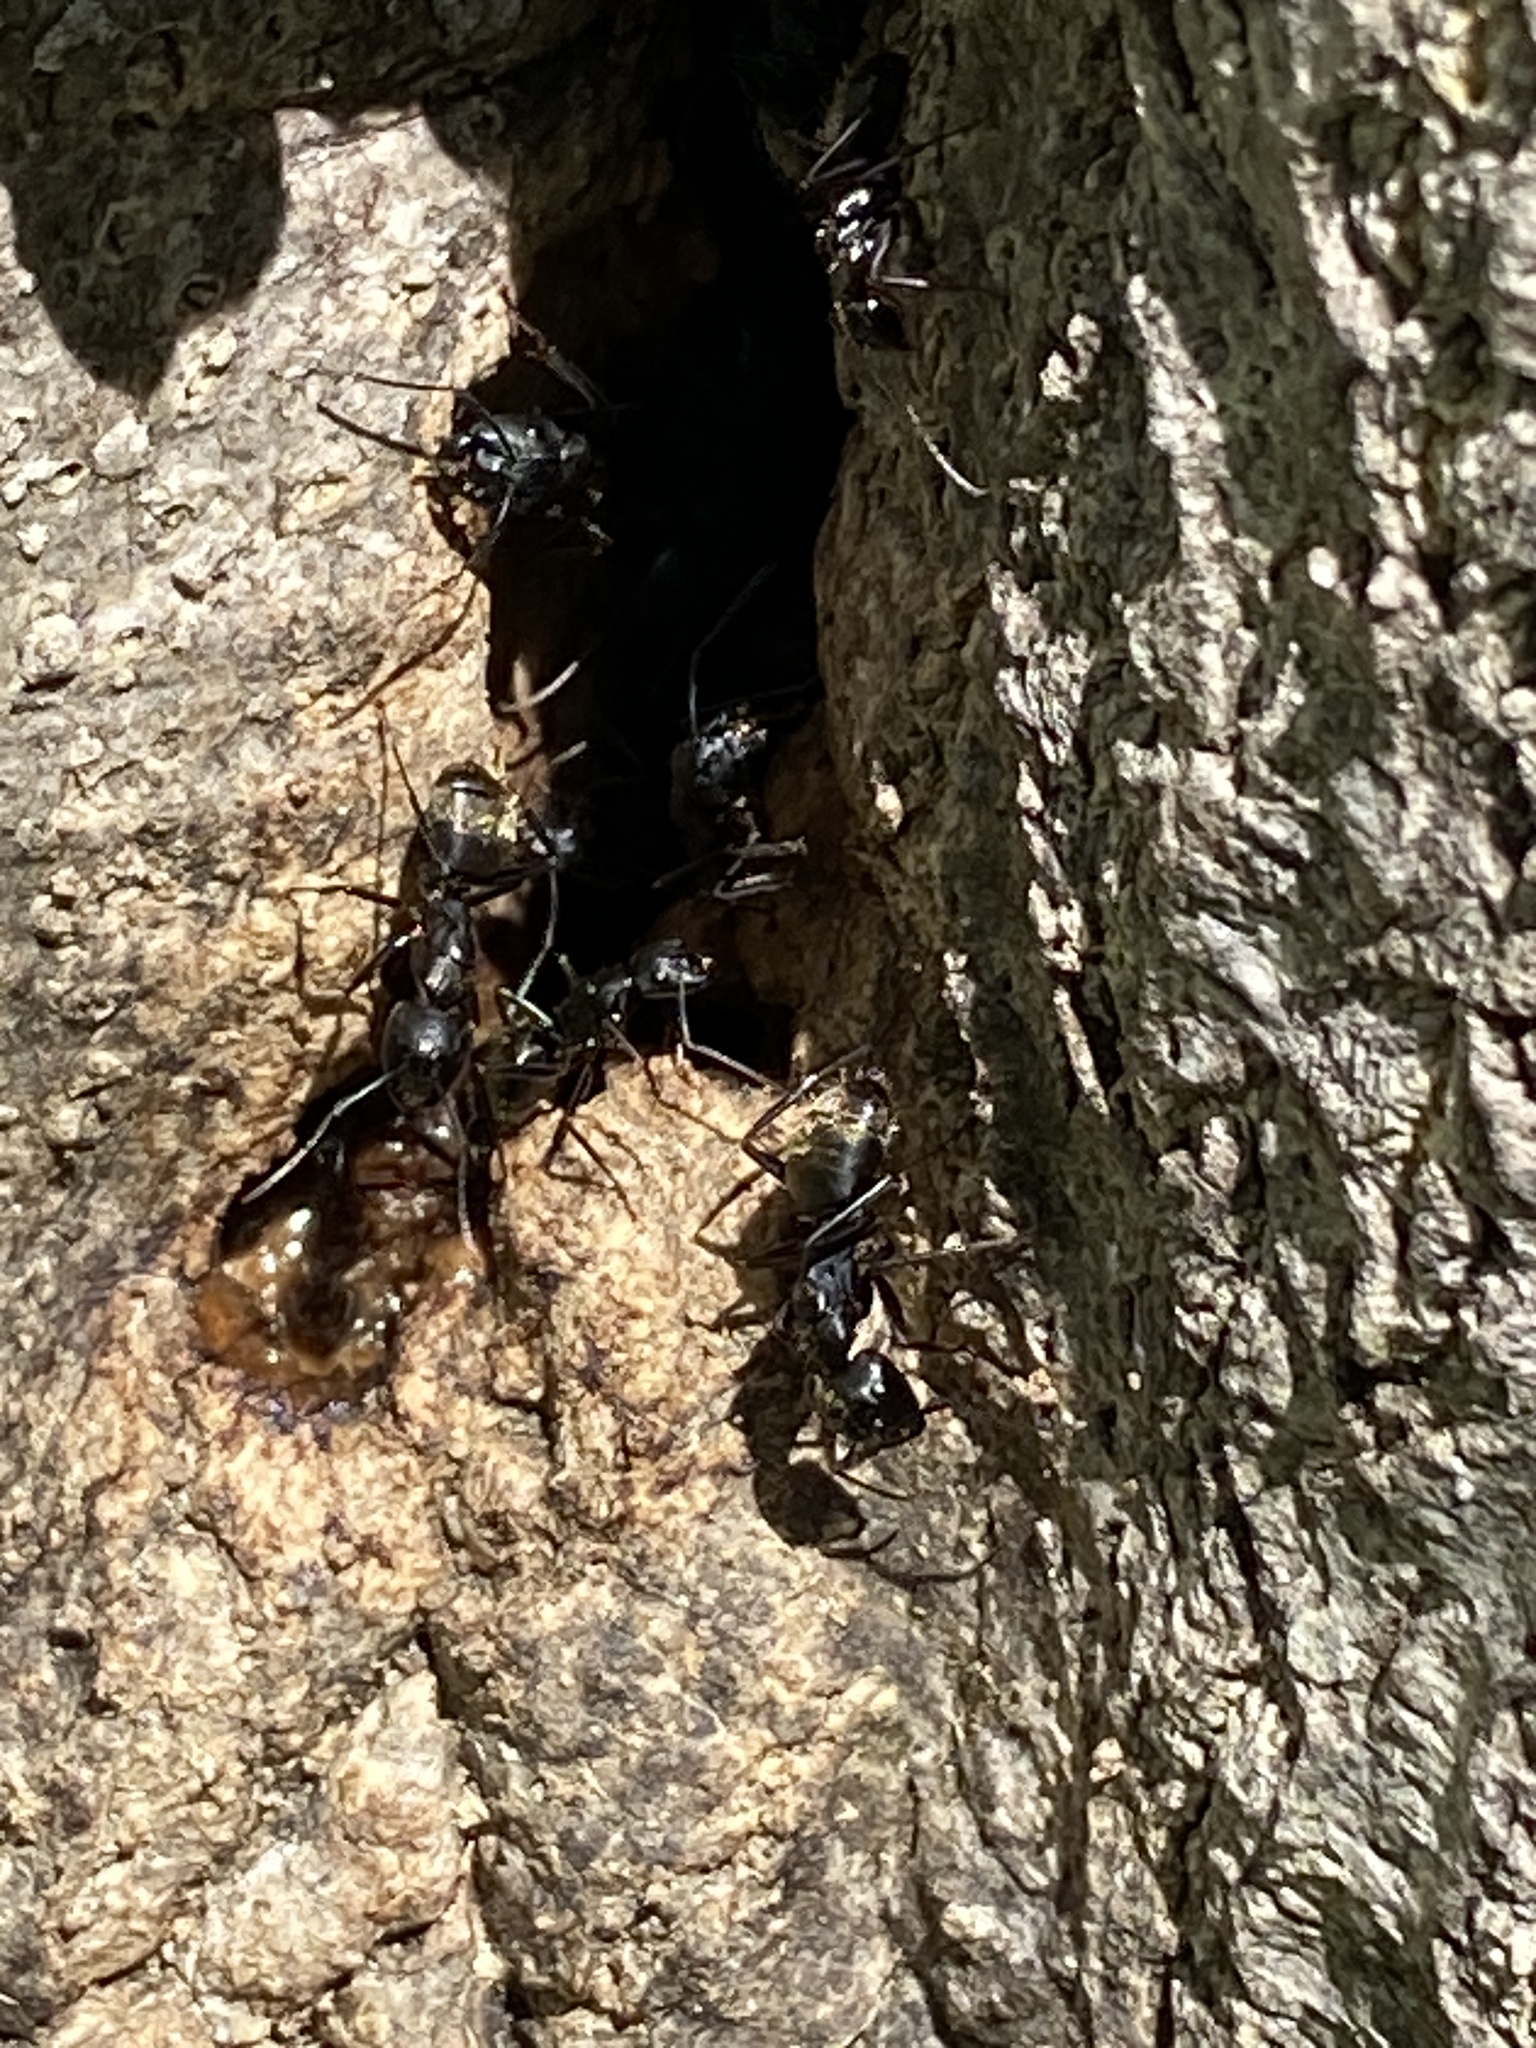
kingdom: Animalia
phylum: Arthropoda
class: Insecta
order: Hymenoptera
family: Formicidae
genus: Camponotus
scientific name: Camponotus pennsylvanicus
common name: Black carpenter ant
